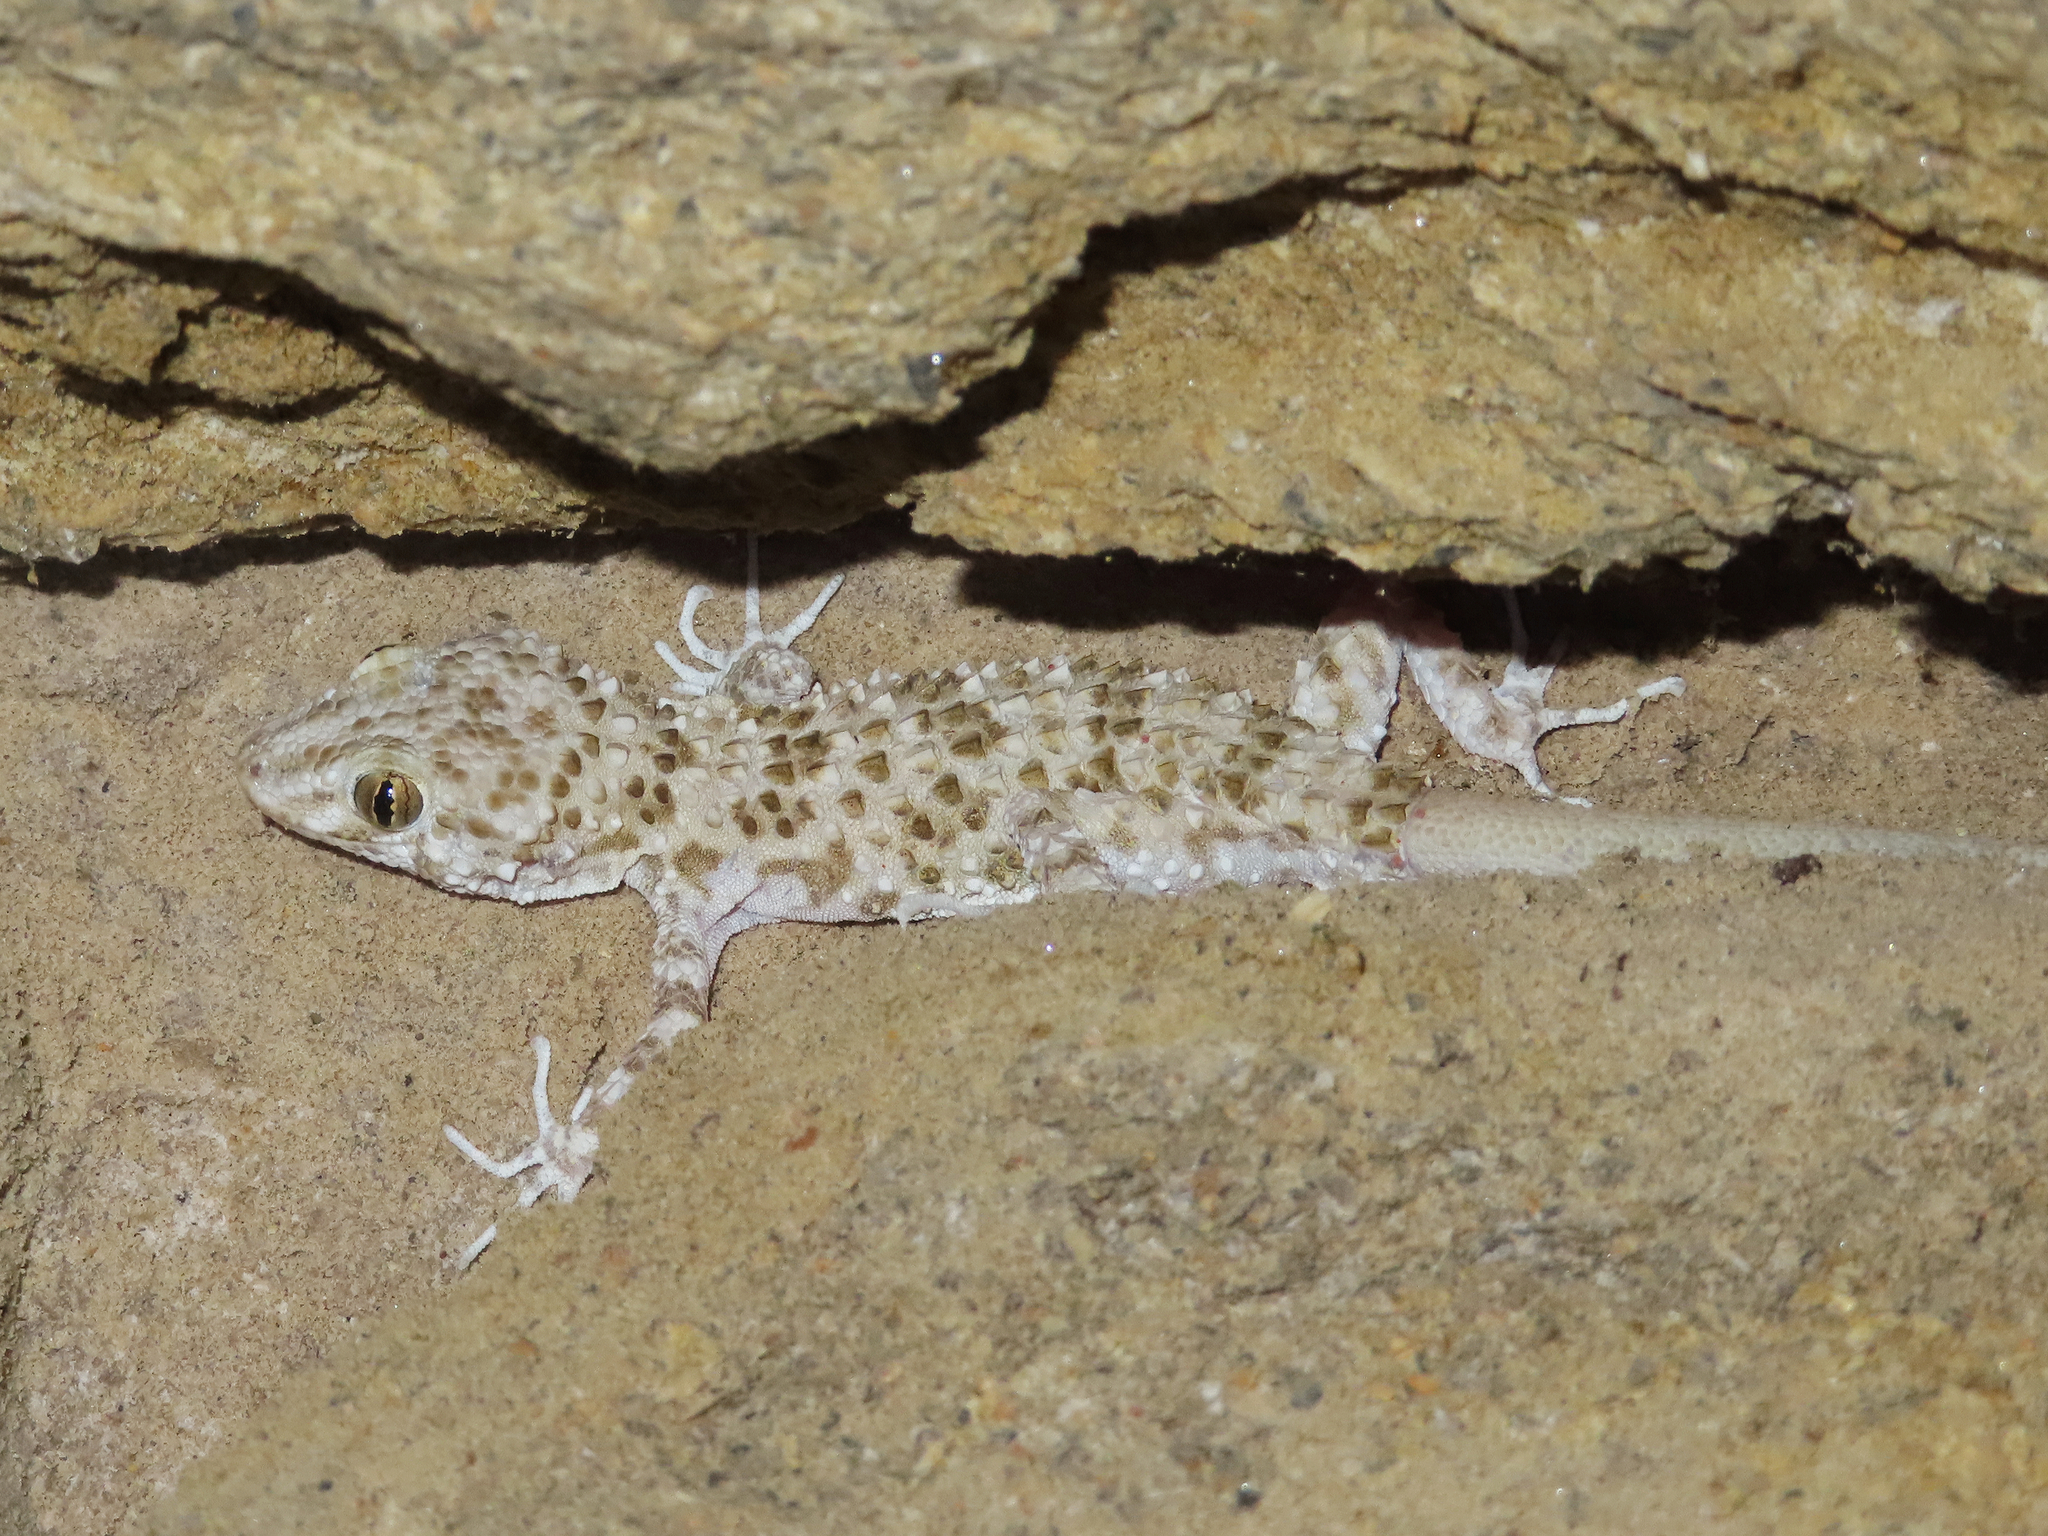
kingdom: Animalia
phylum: Chordata
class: Squamata
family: Gekkonidae
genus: Tenuidactylus
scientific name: Tenuidactylus caspius
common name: Caspian bent-toed gecko
